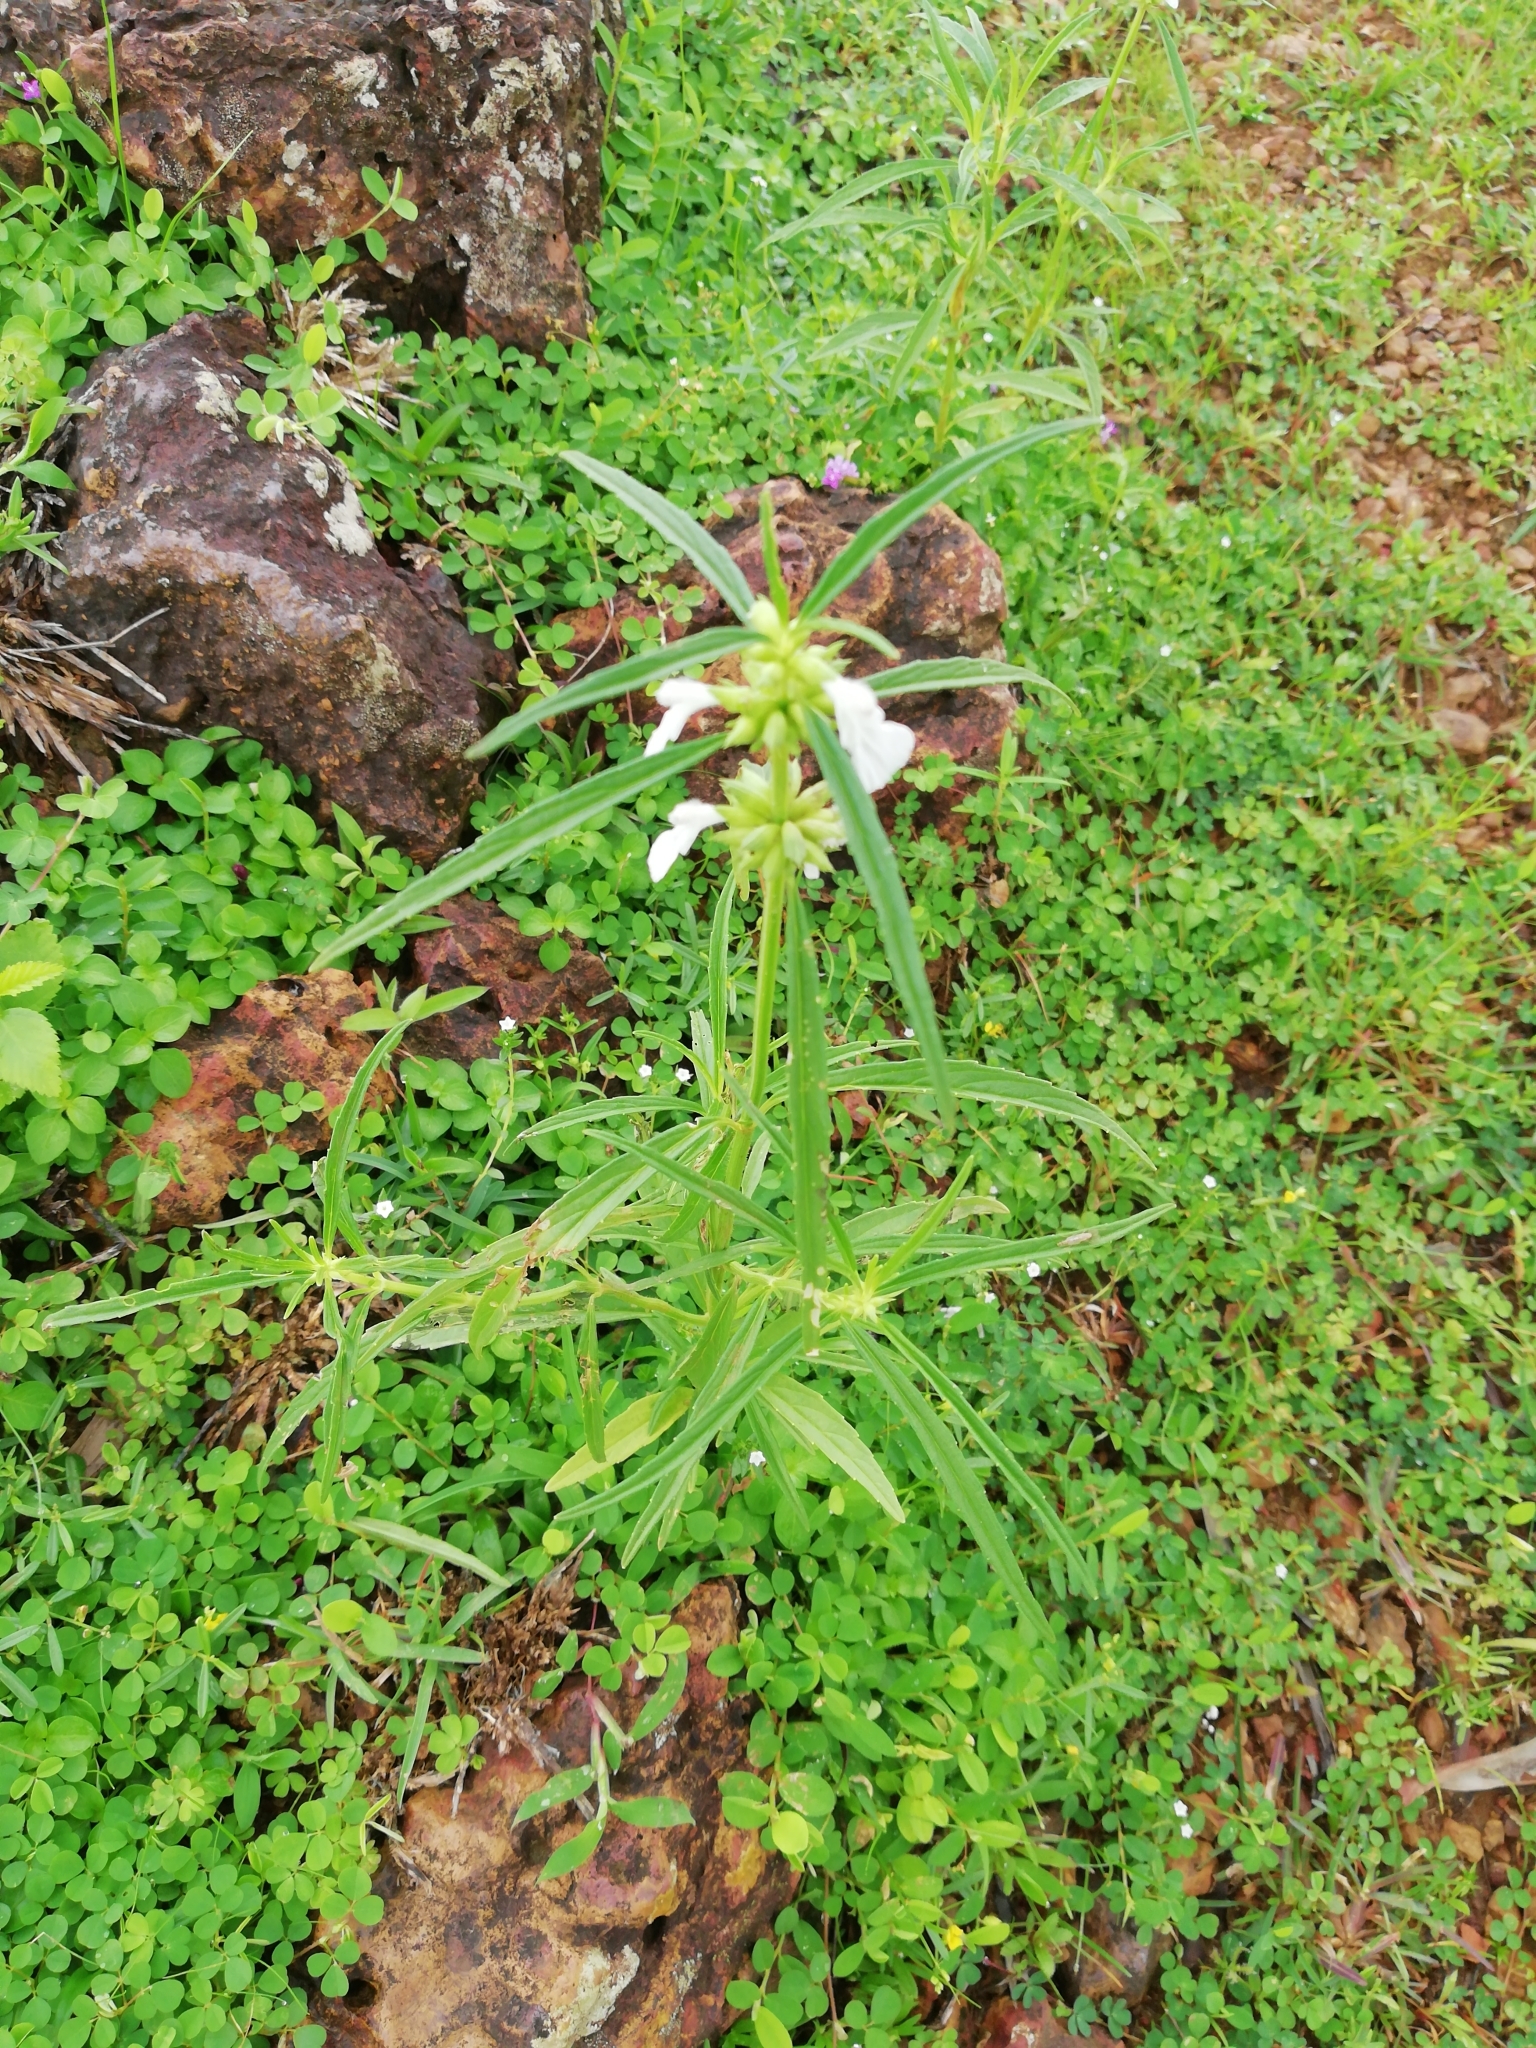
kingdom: Plantae
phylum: Tracheophyta
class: Magnoliopsida
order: Lamiales
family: Lamiaceae
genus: Leucas
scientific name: Leucas aspera
